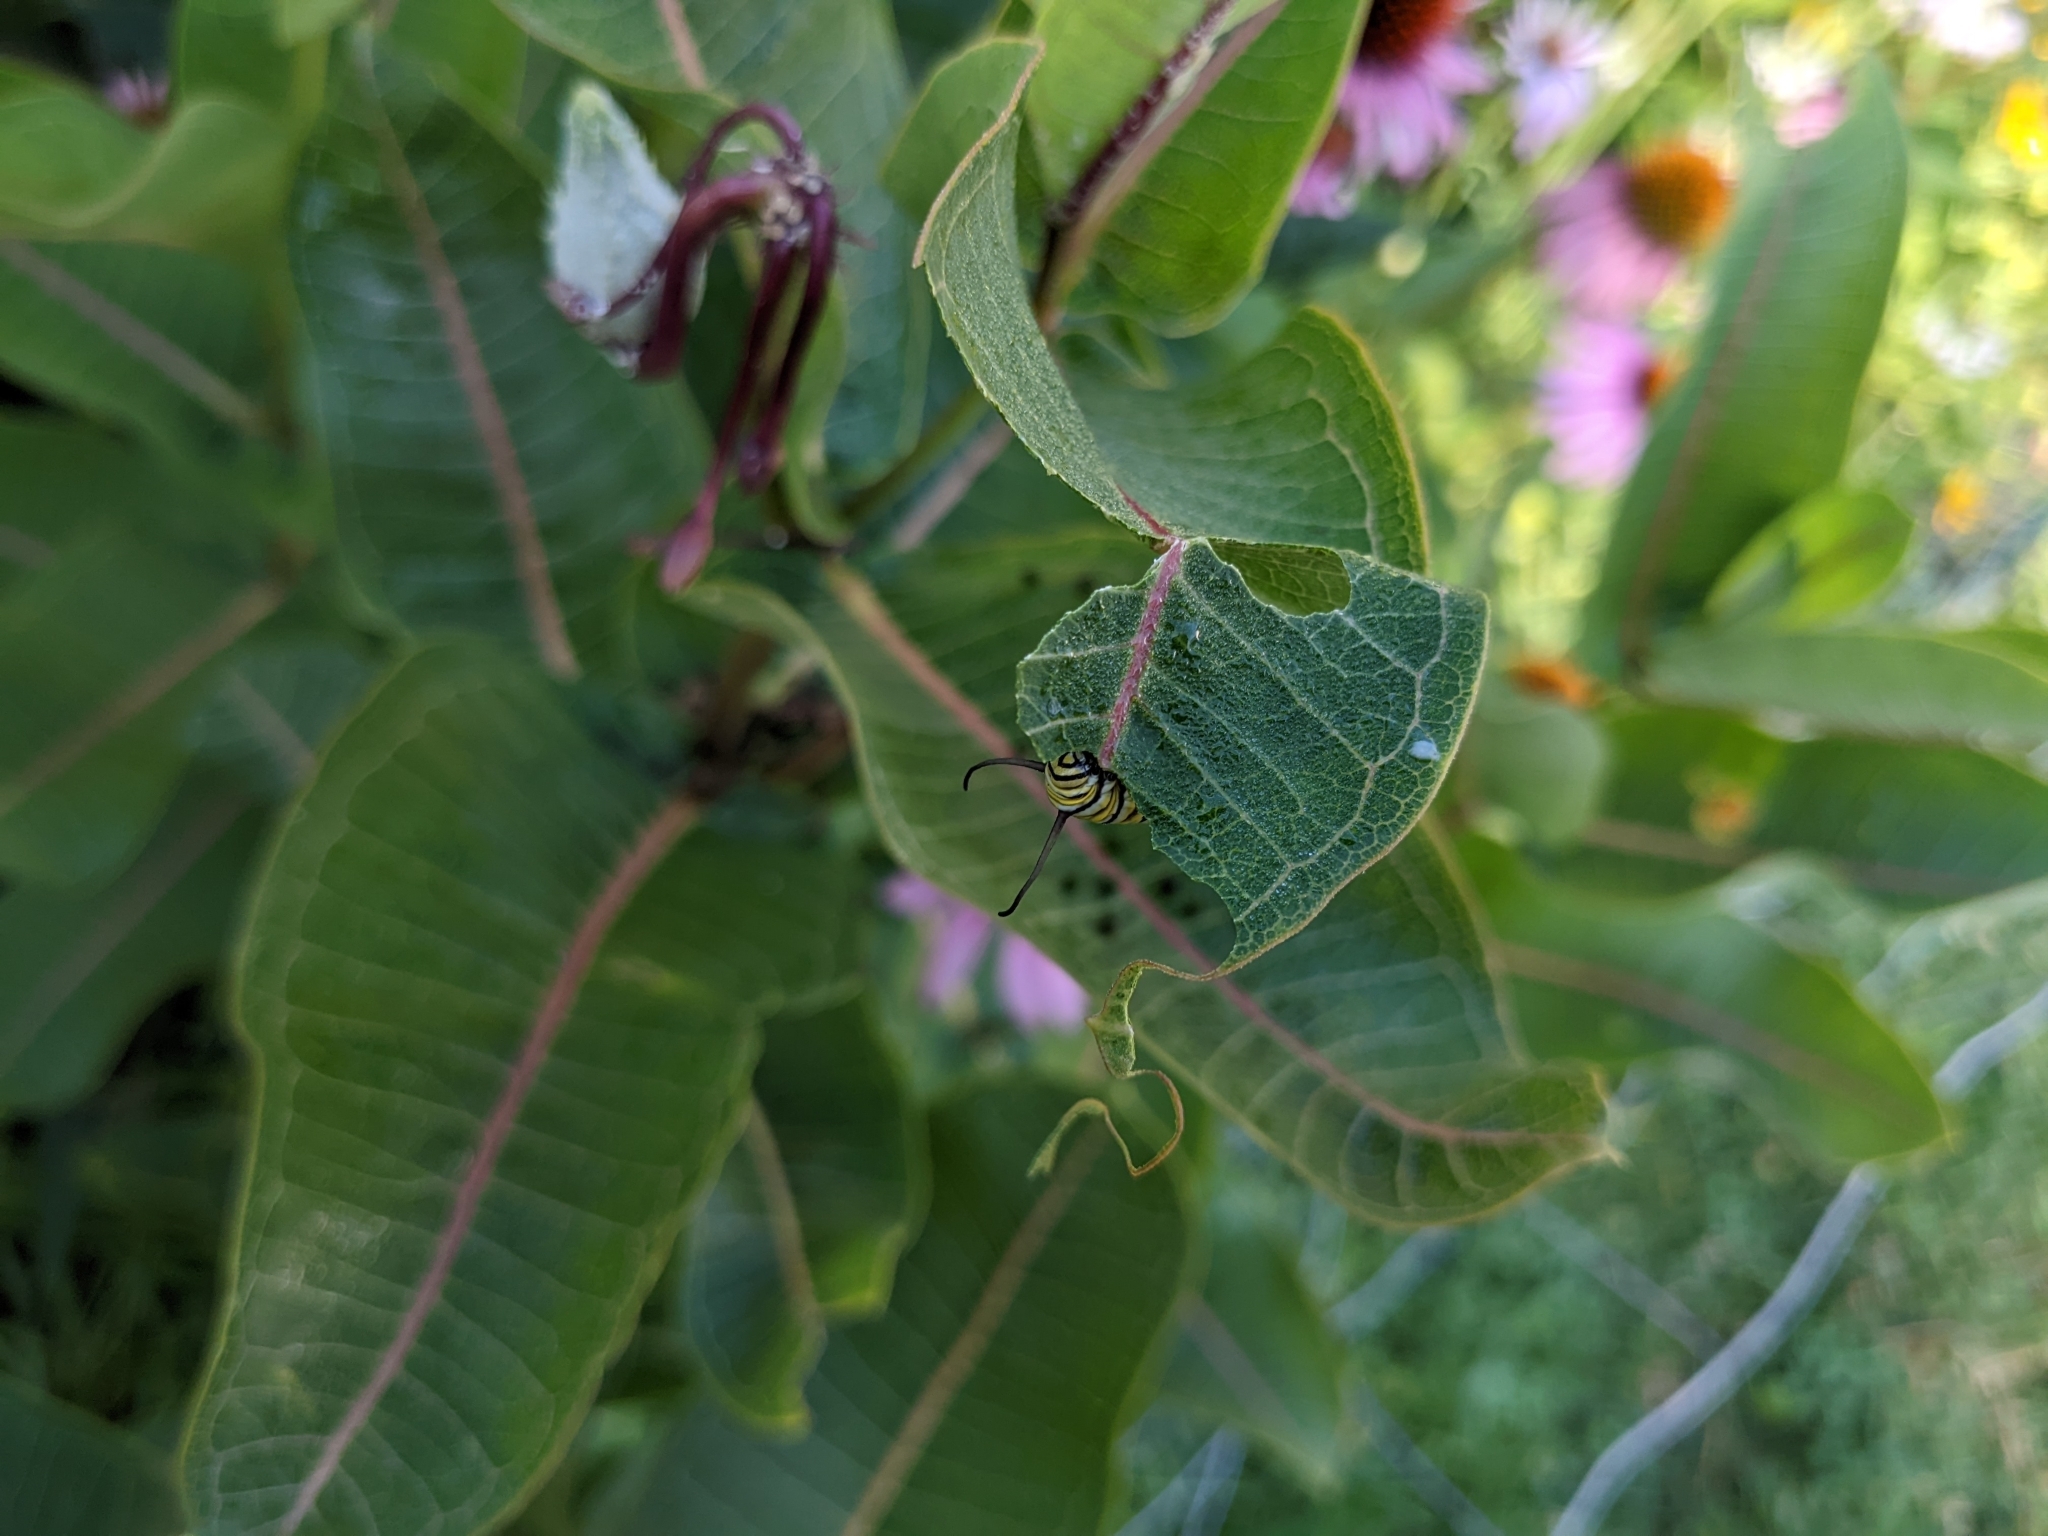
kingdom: Animalia
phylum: Arthropoda
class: Insecta
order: Lepidoptera
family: Nymphalidae
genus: Danaus
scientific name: Danaus plexippus
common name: Monarch
